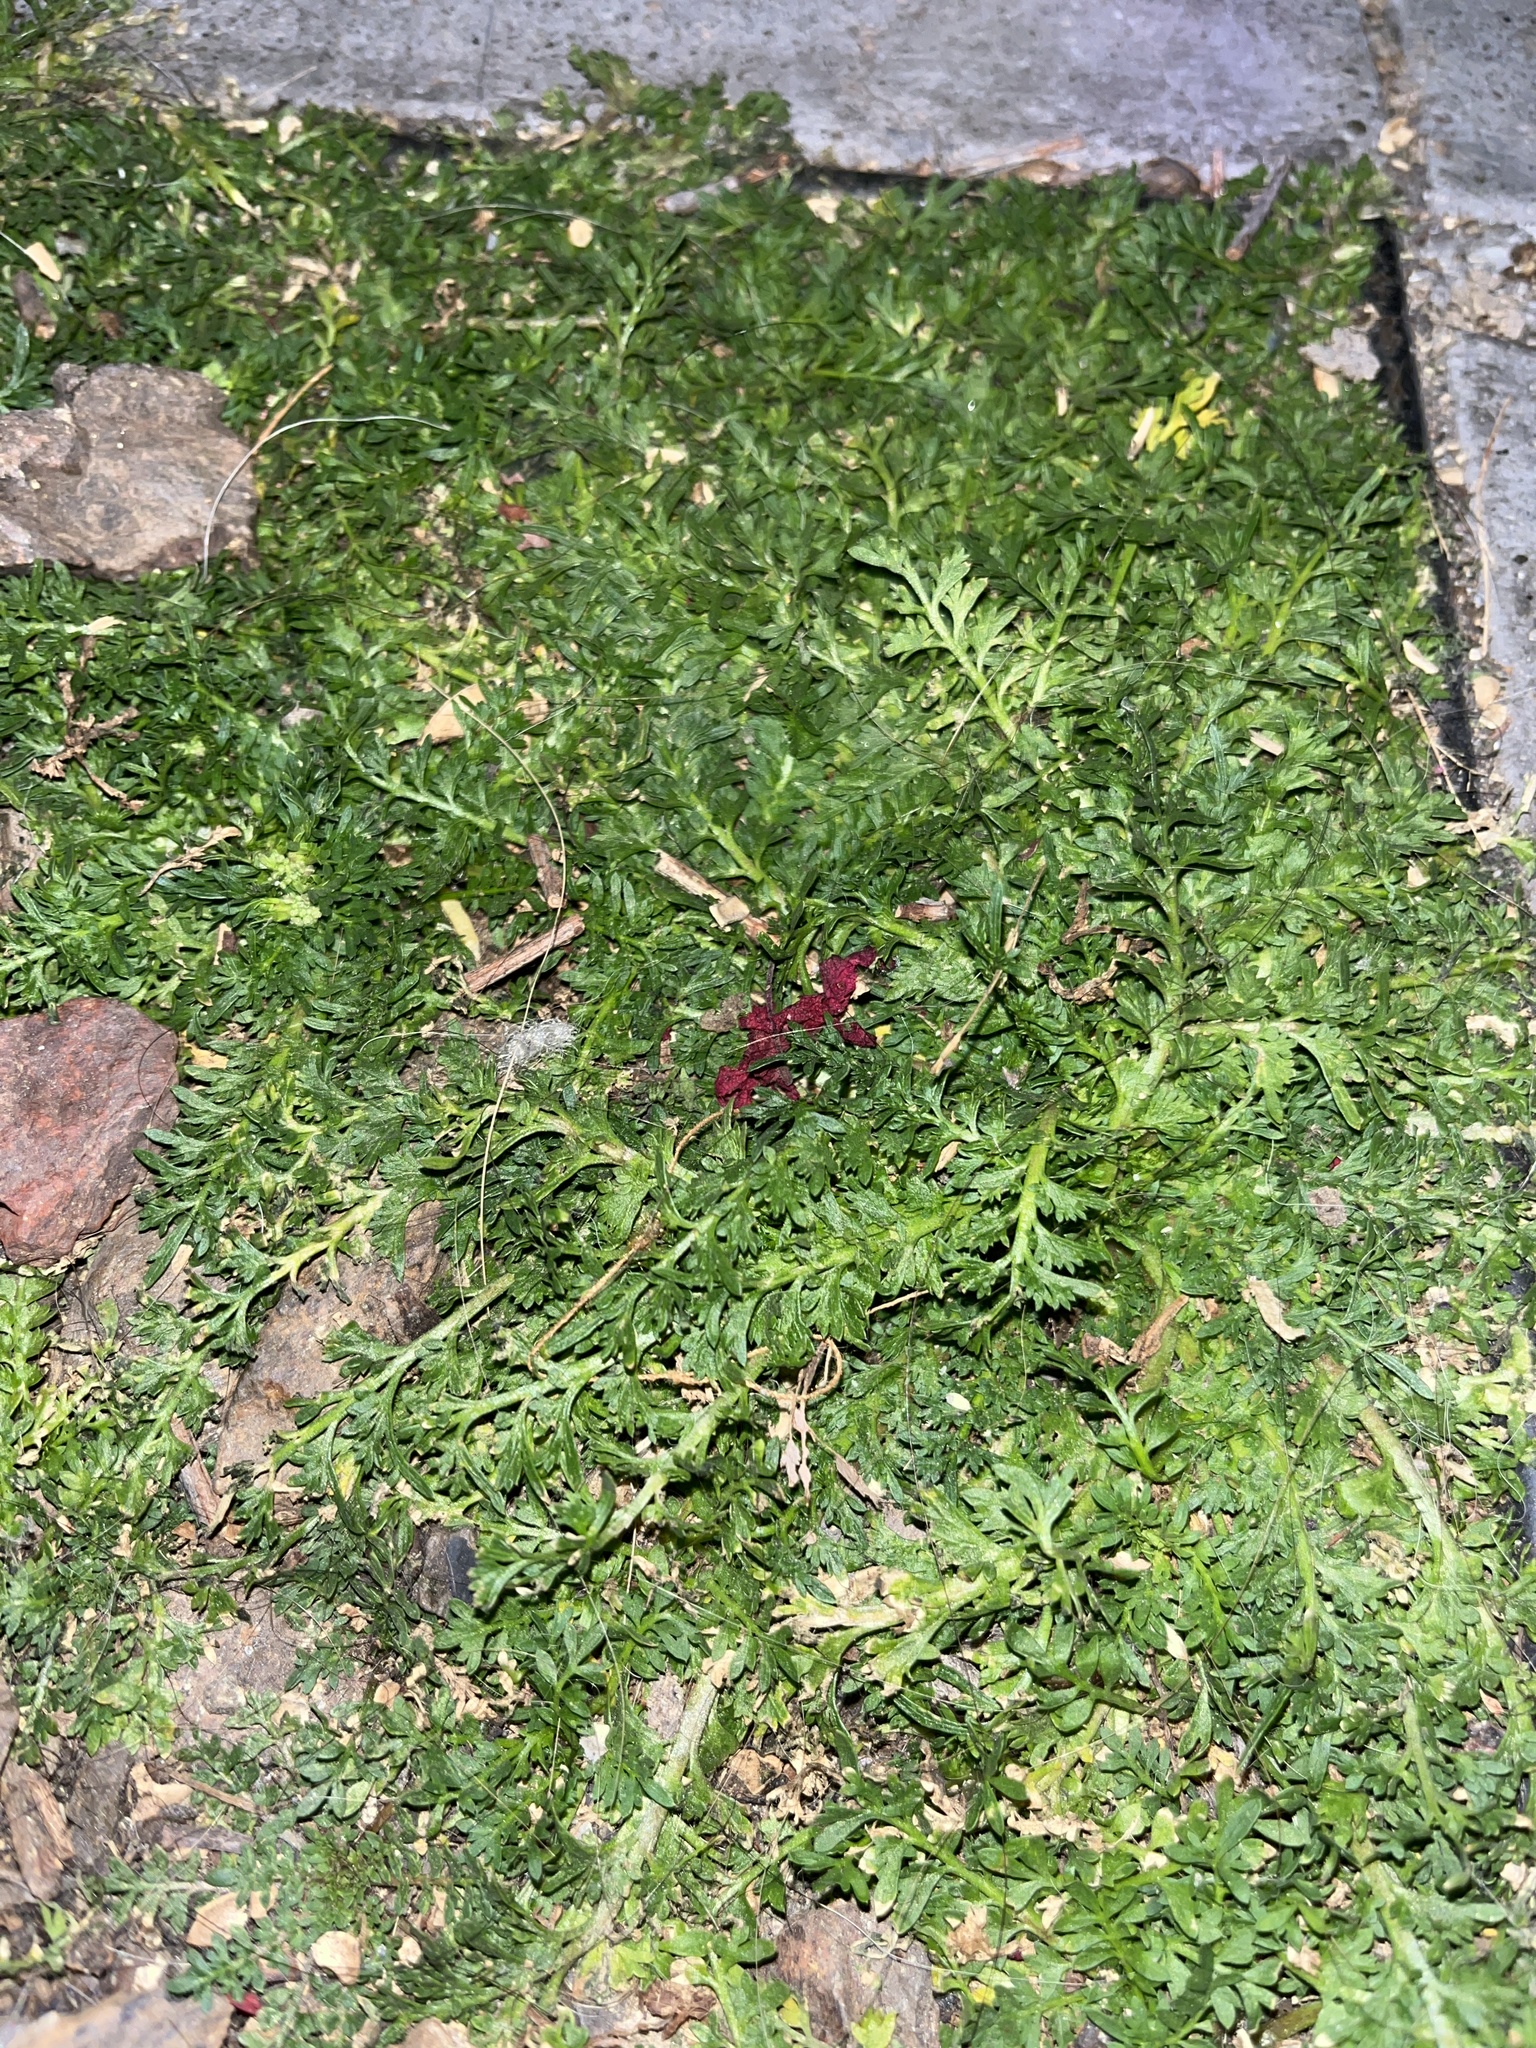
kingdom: Plantae
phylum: Tracheophyta
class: Magnoliopsida
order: Brassicales
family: Brassicaceae
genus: Lepidium
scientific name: Lepidium didymum
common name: Lesser swinecress
